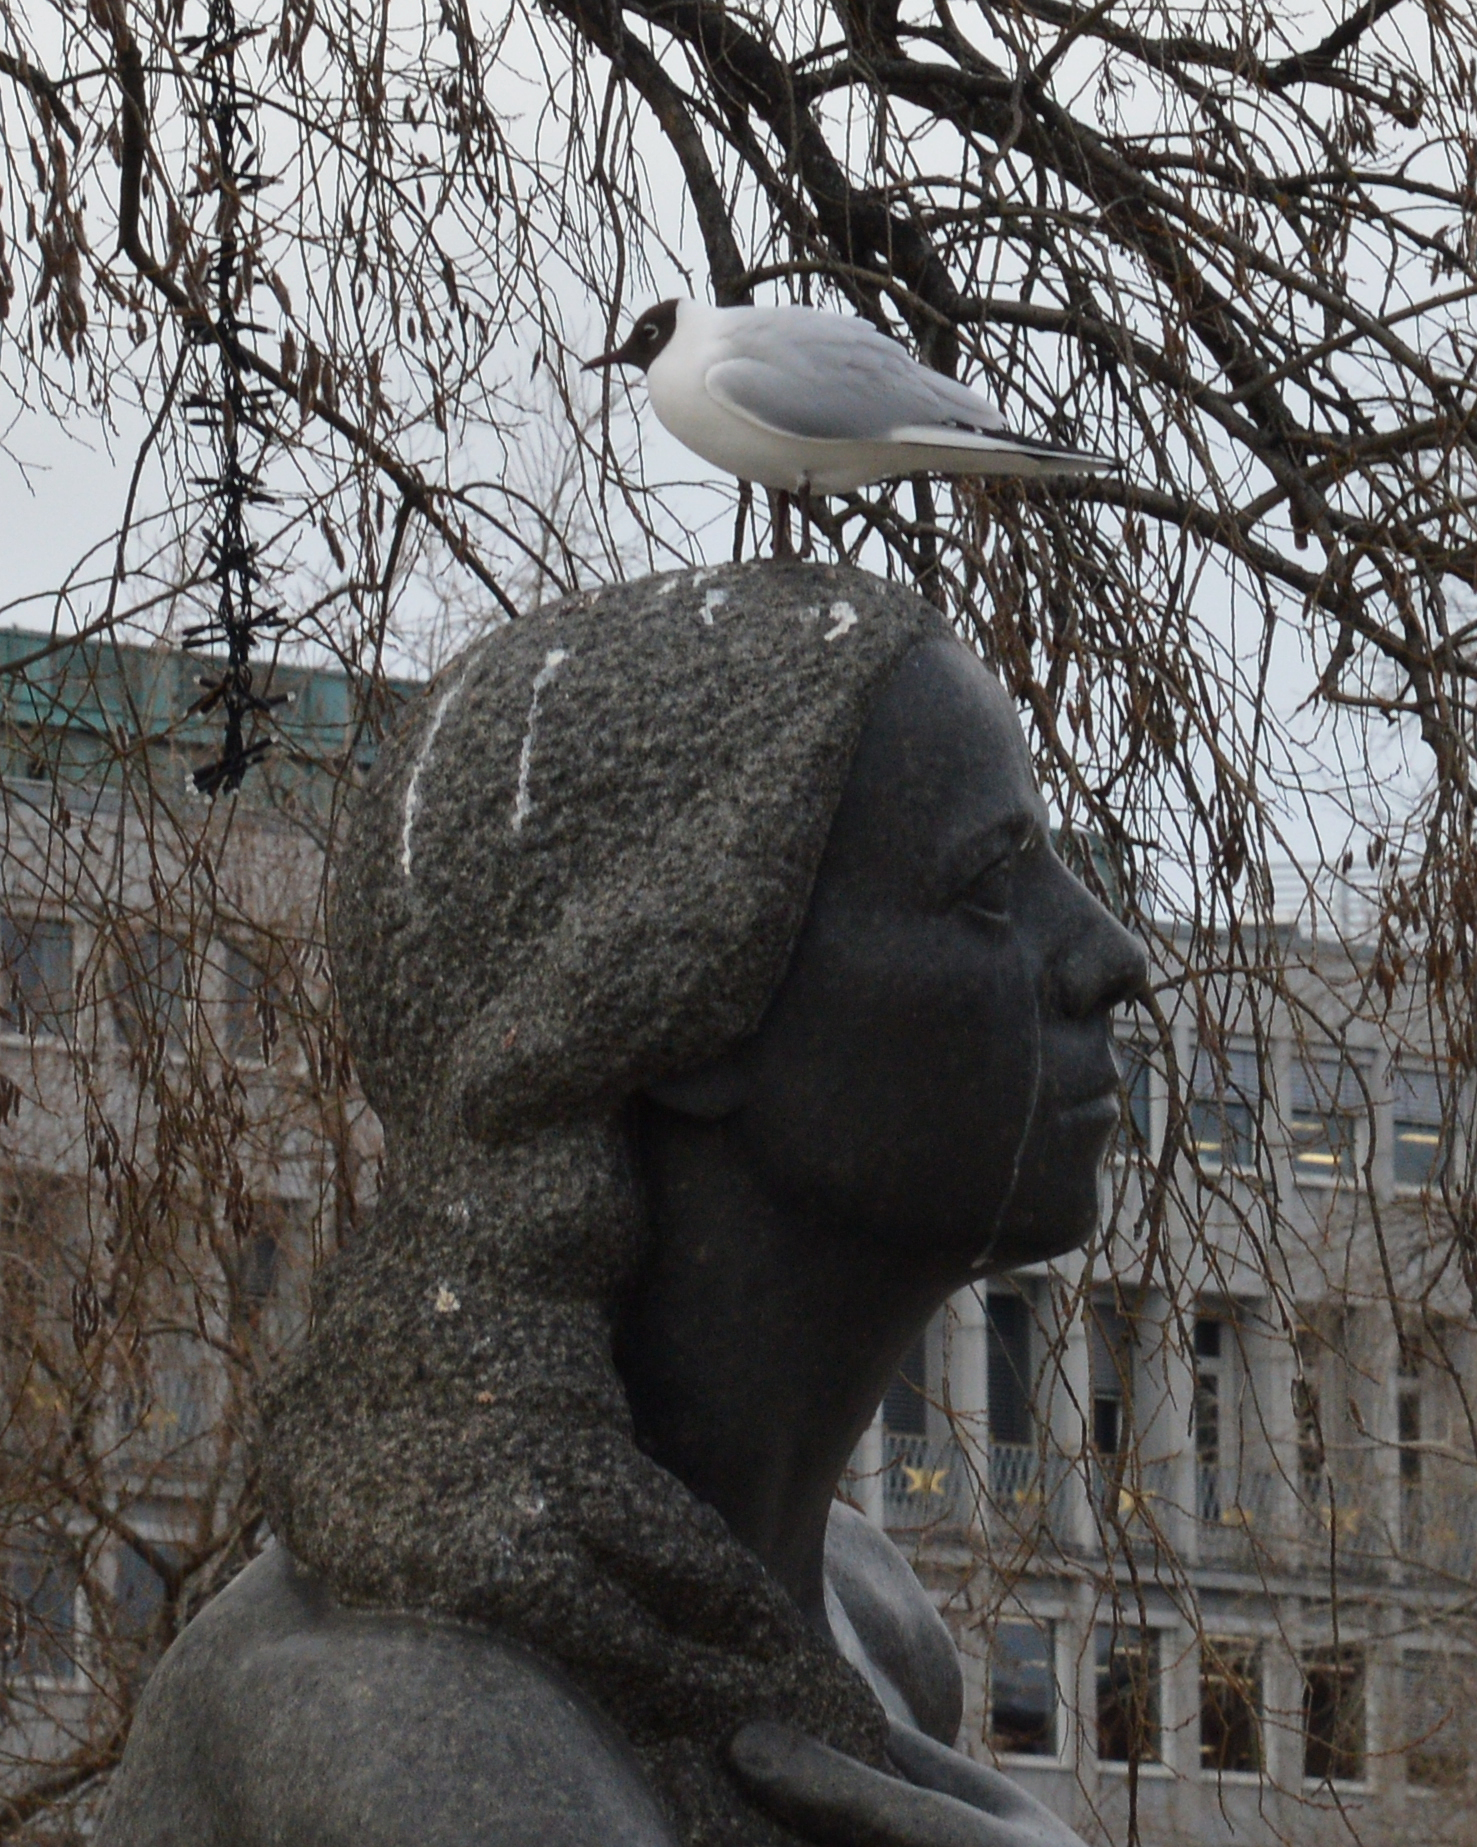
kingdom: Animalia
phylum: Chordata
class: Aves
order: Charadriiformes
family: Laridae
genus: Chroicocephalus
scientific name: Chroicocephalus ridibundus
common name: Black-headed gull
